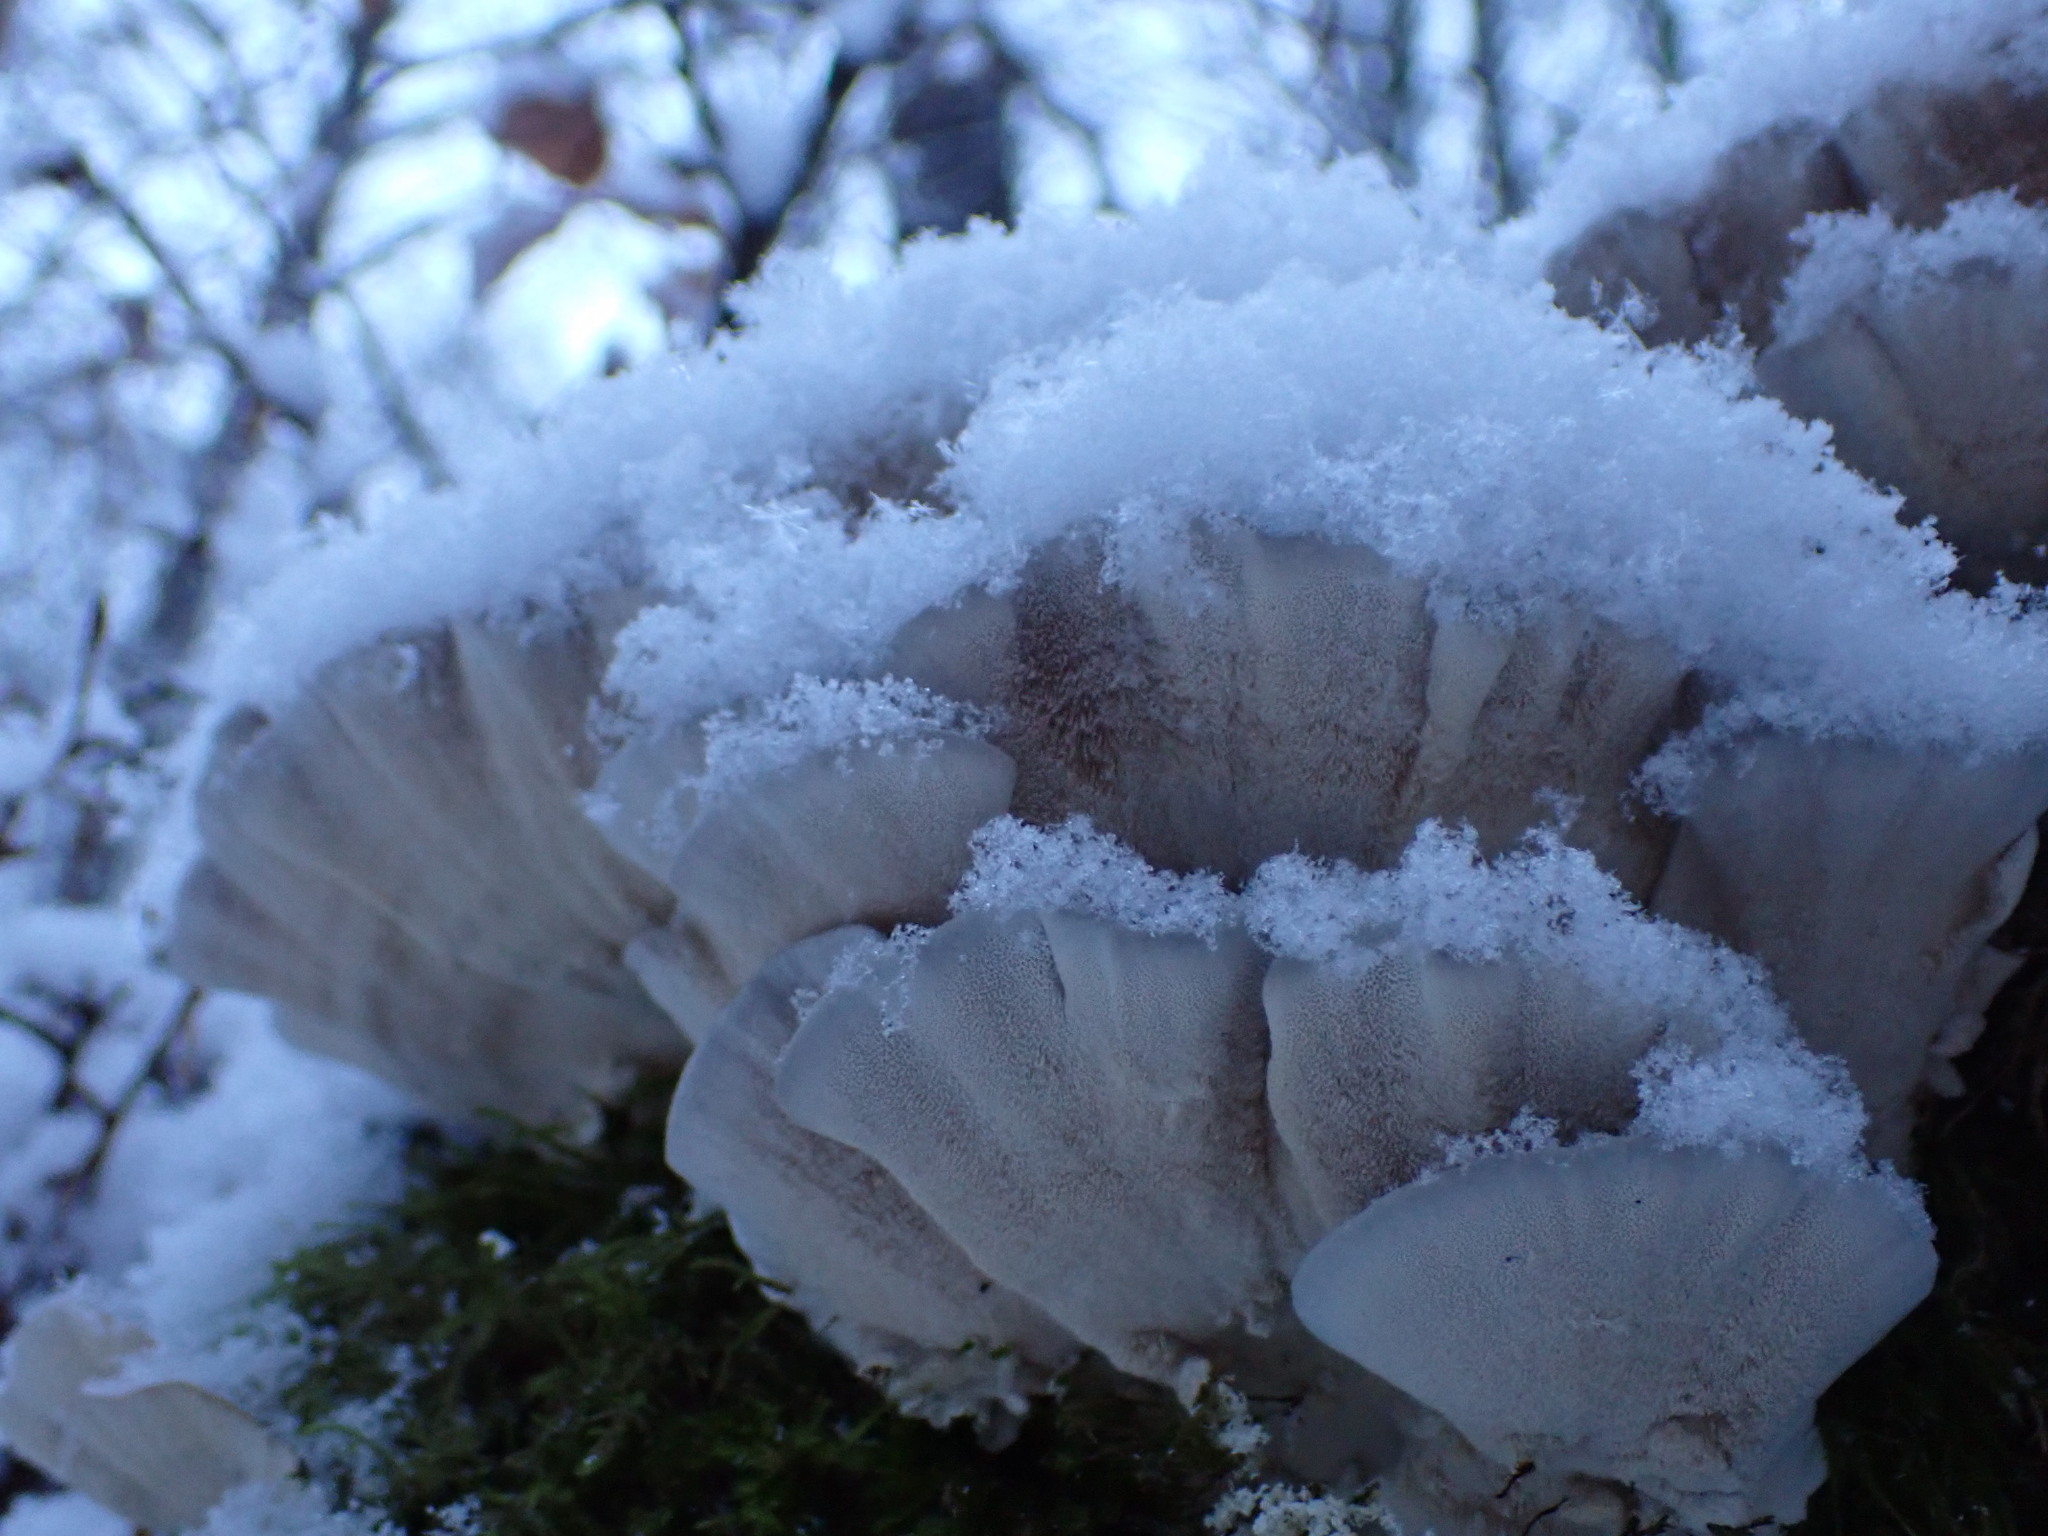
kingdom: Fungi
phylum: Basidiomycota
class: Agaricomycetes
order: Polyporales
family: Polyporaceae
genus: Trametes
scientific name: Trametes versicolor
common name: Turkeytail
